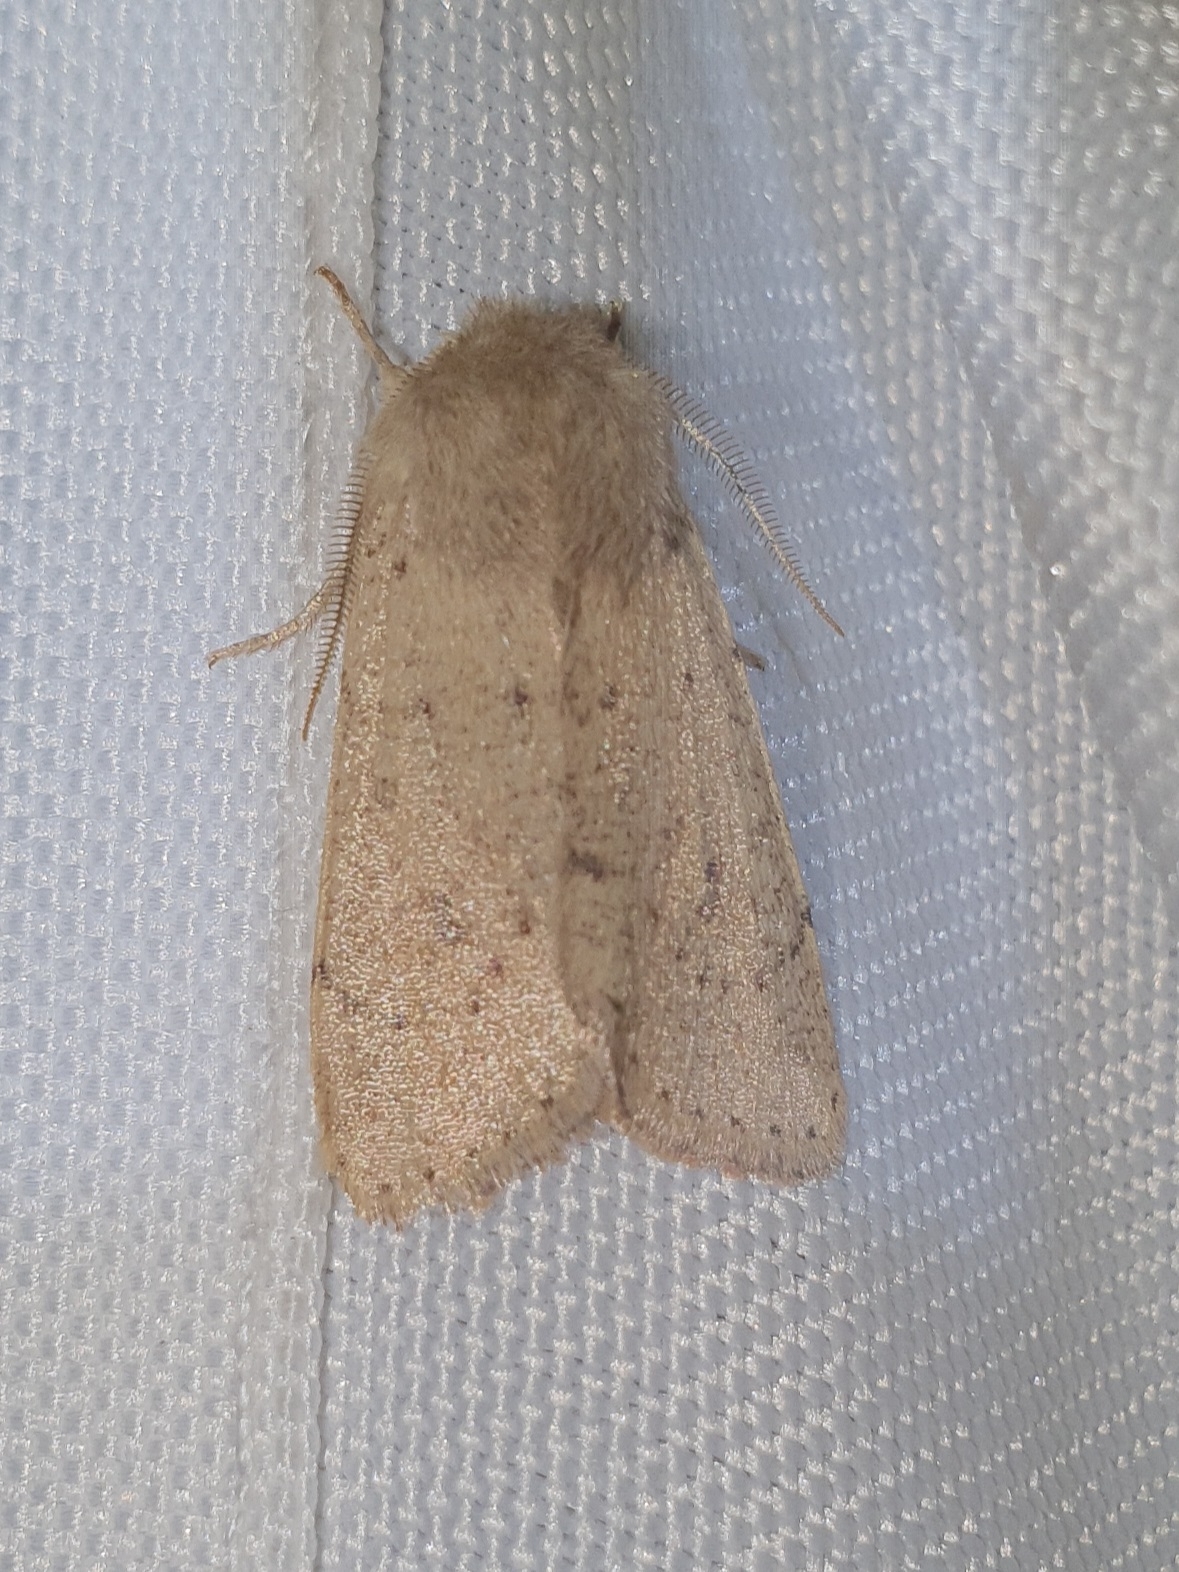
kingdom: Animalia
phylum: Arthropoda
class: Insecta
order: Lepidoptera
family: Noctuidae
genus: Orthosia
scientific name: Orthosia cruda
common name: Small quaker
